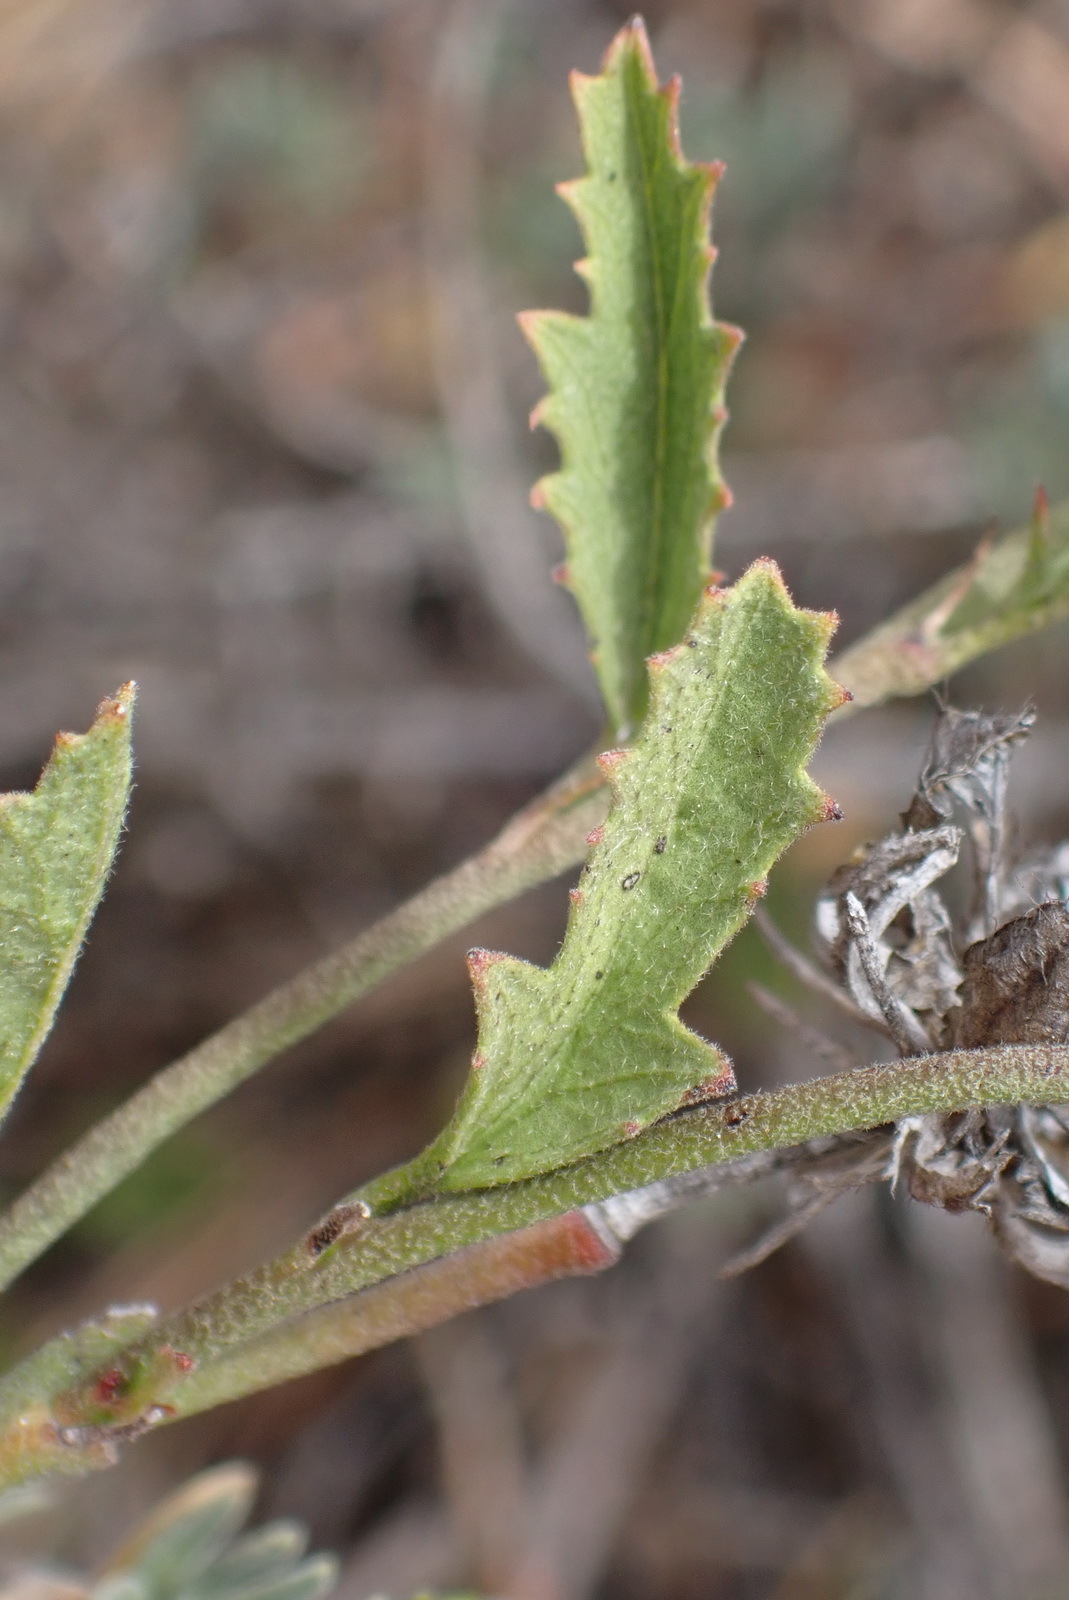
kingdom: Plantae
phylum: Tracheophyta
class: Magnoliopsida
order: Malvales
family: Malvaceae
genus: Hibiscus
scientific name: Hibiscus pusillus
